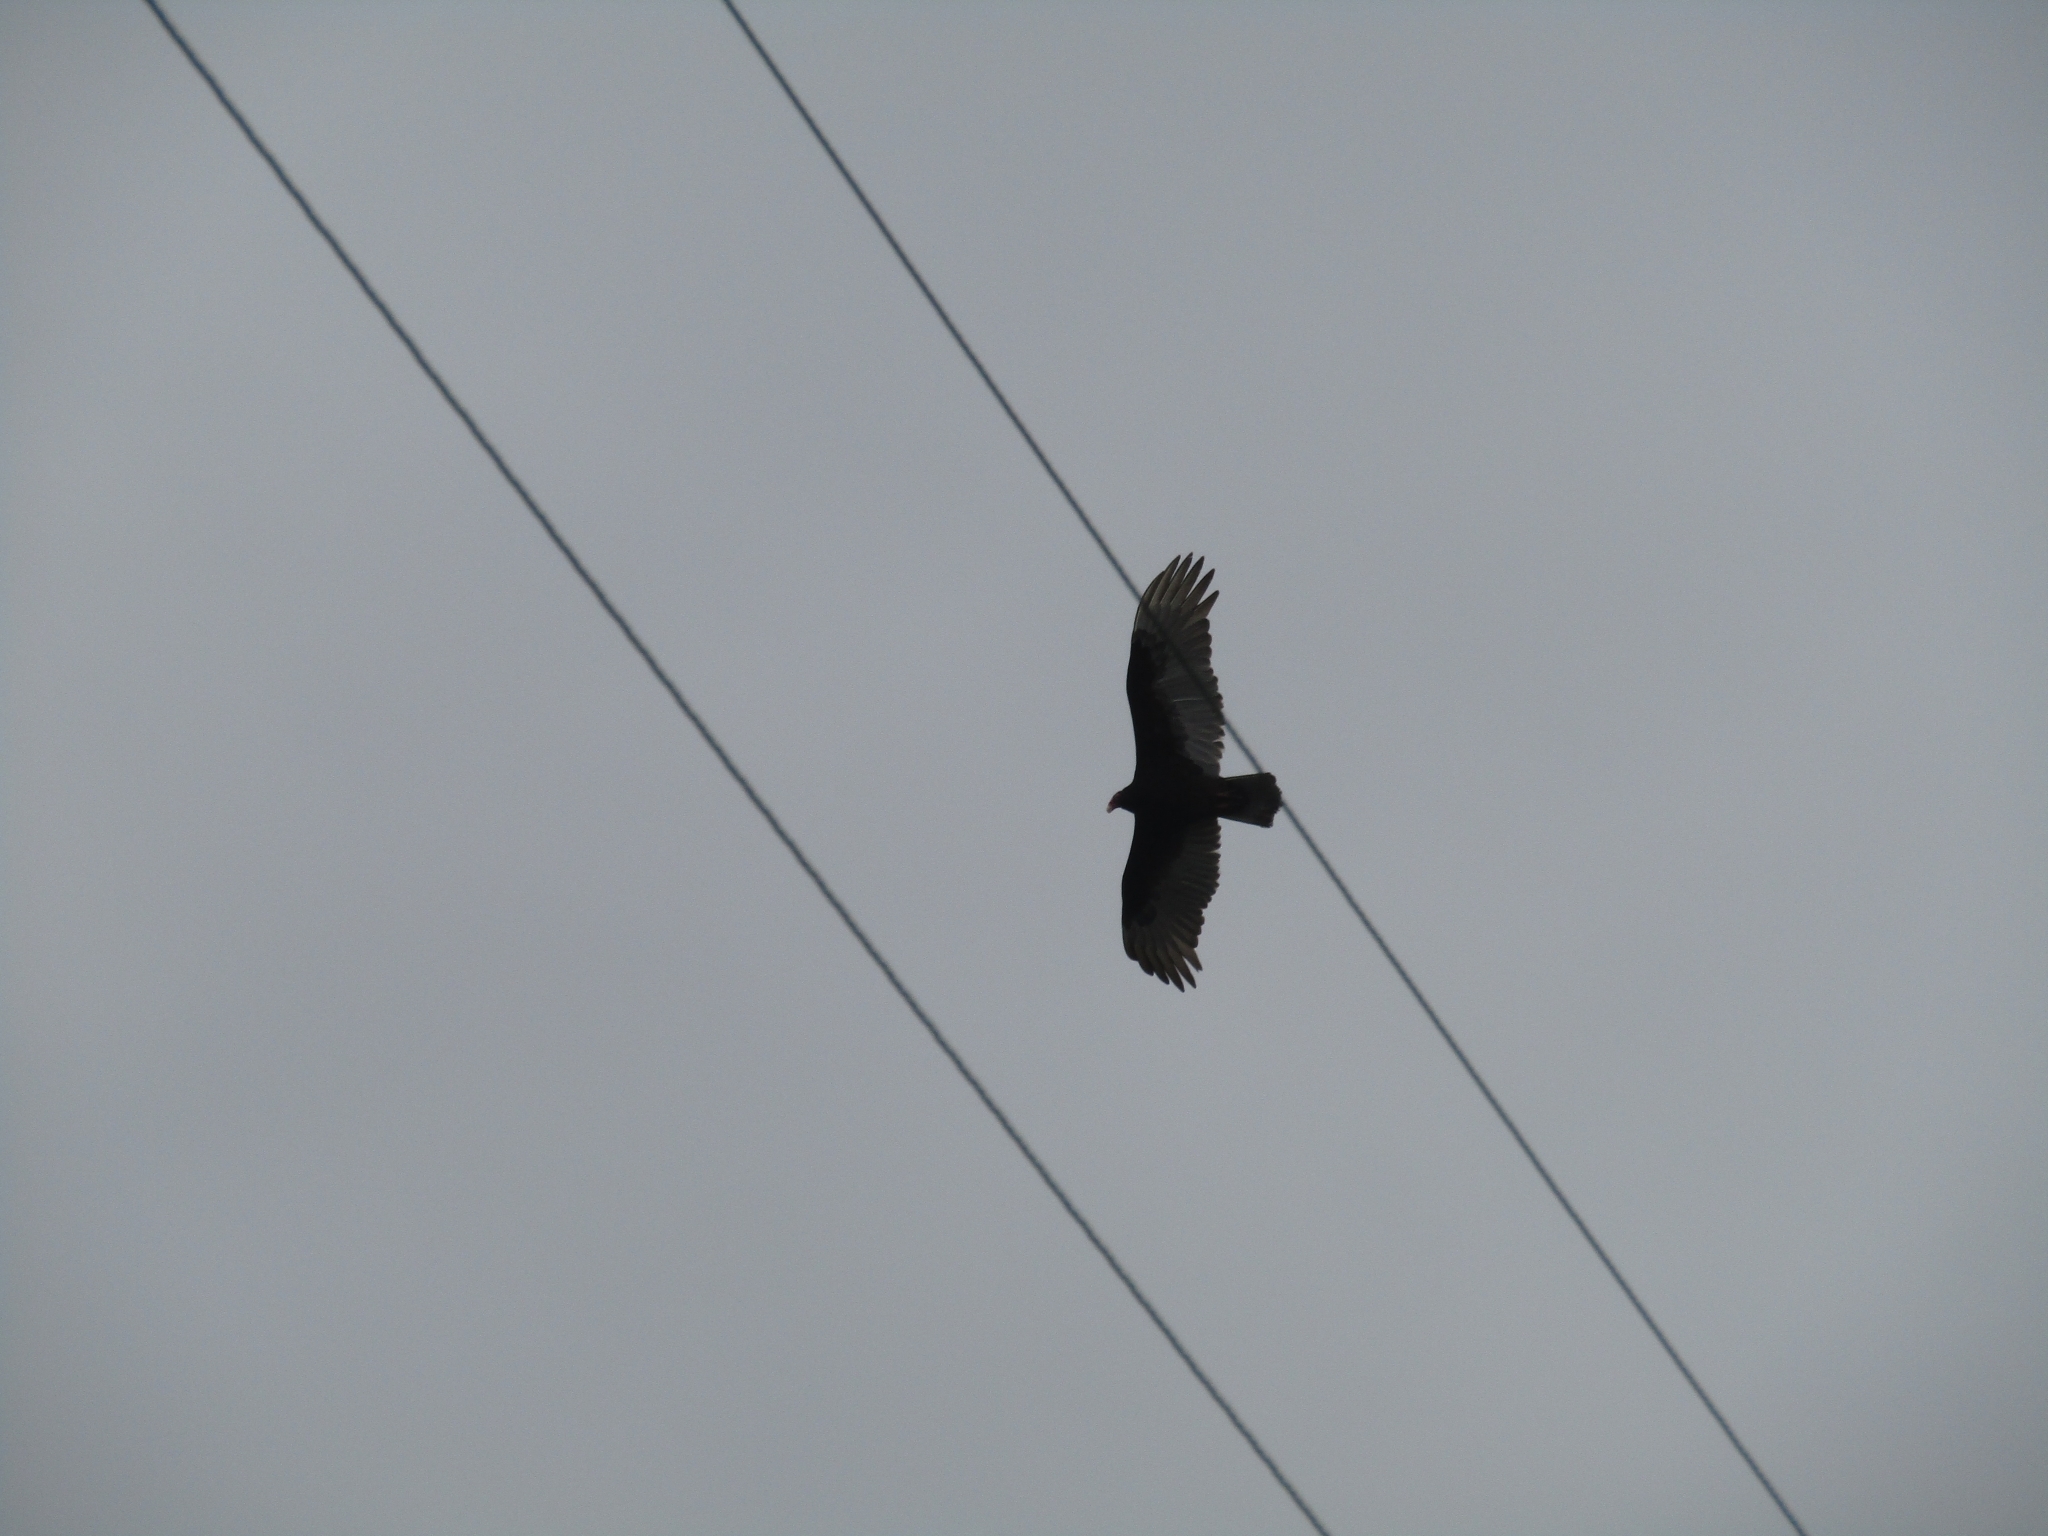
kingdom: Animalia
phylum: Chordata
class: Aves
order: Accipitriformes
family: Cathartidae
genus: Cathartes
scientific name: Cathartes aura
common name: Turkey vulture
